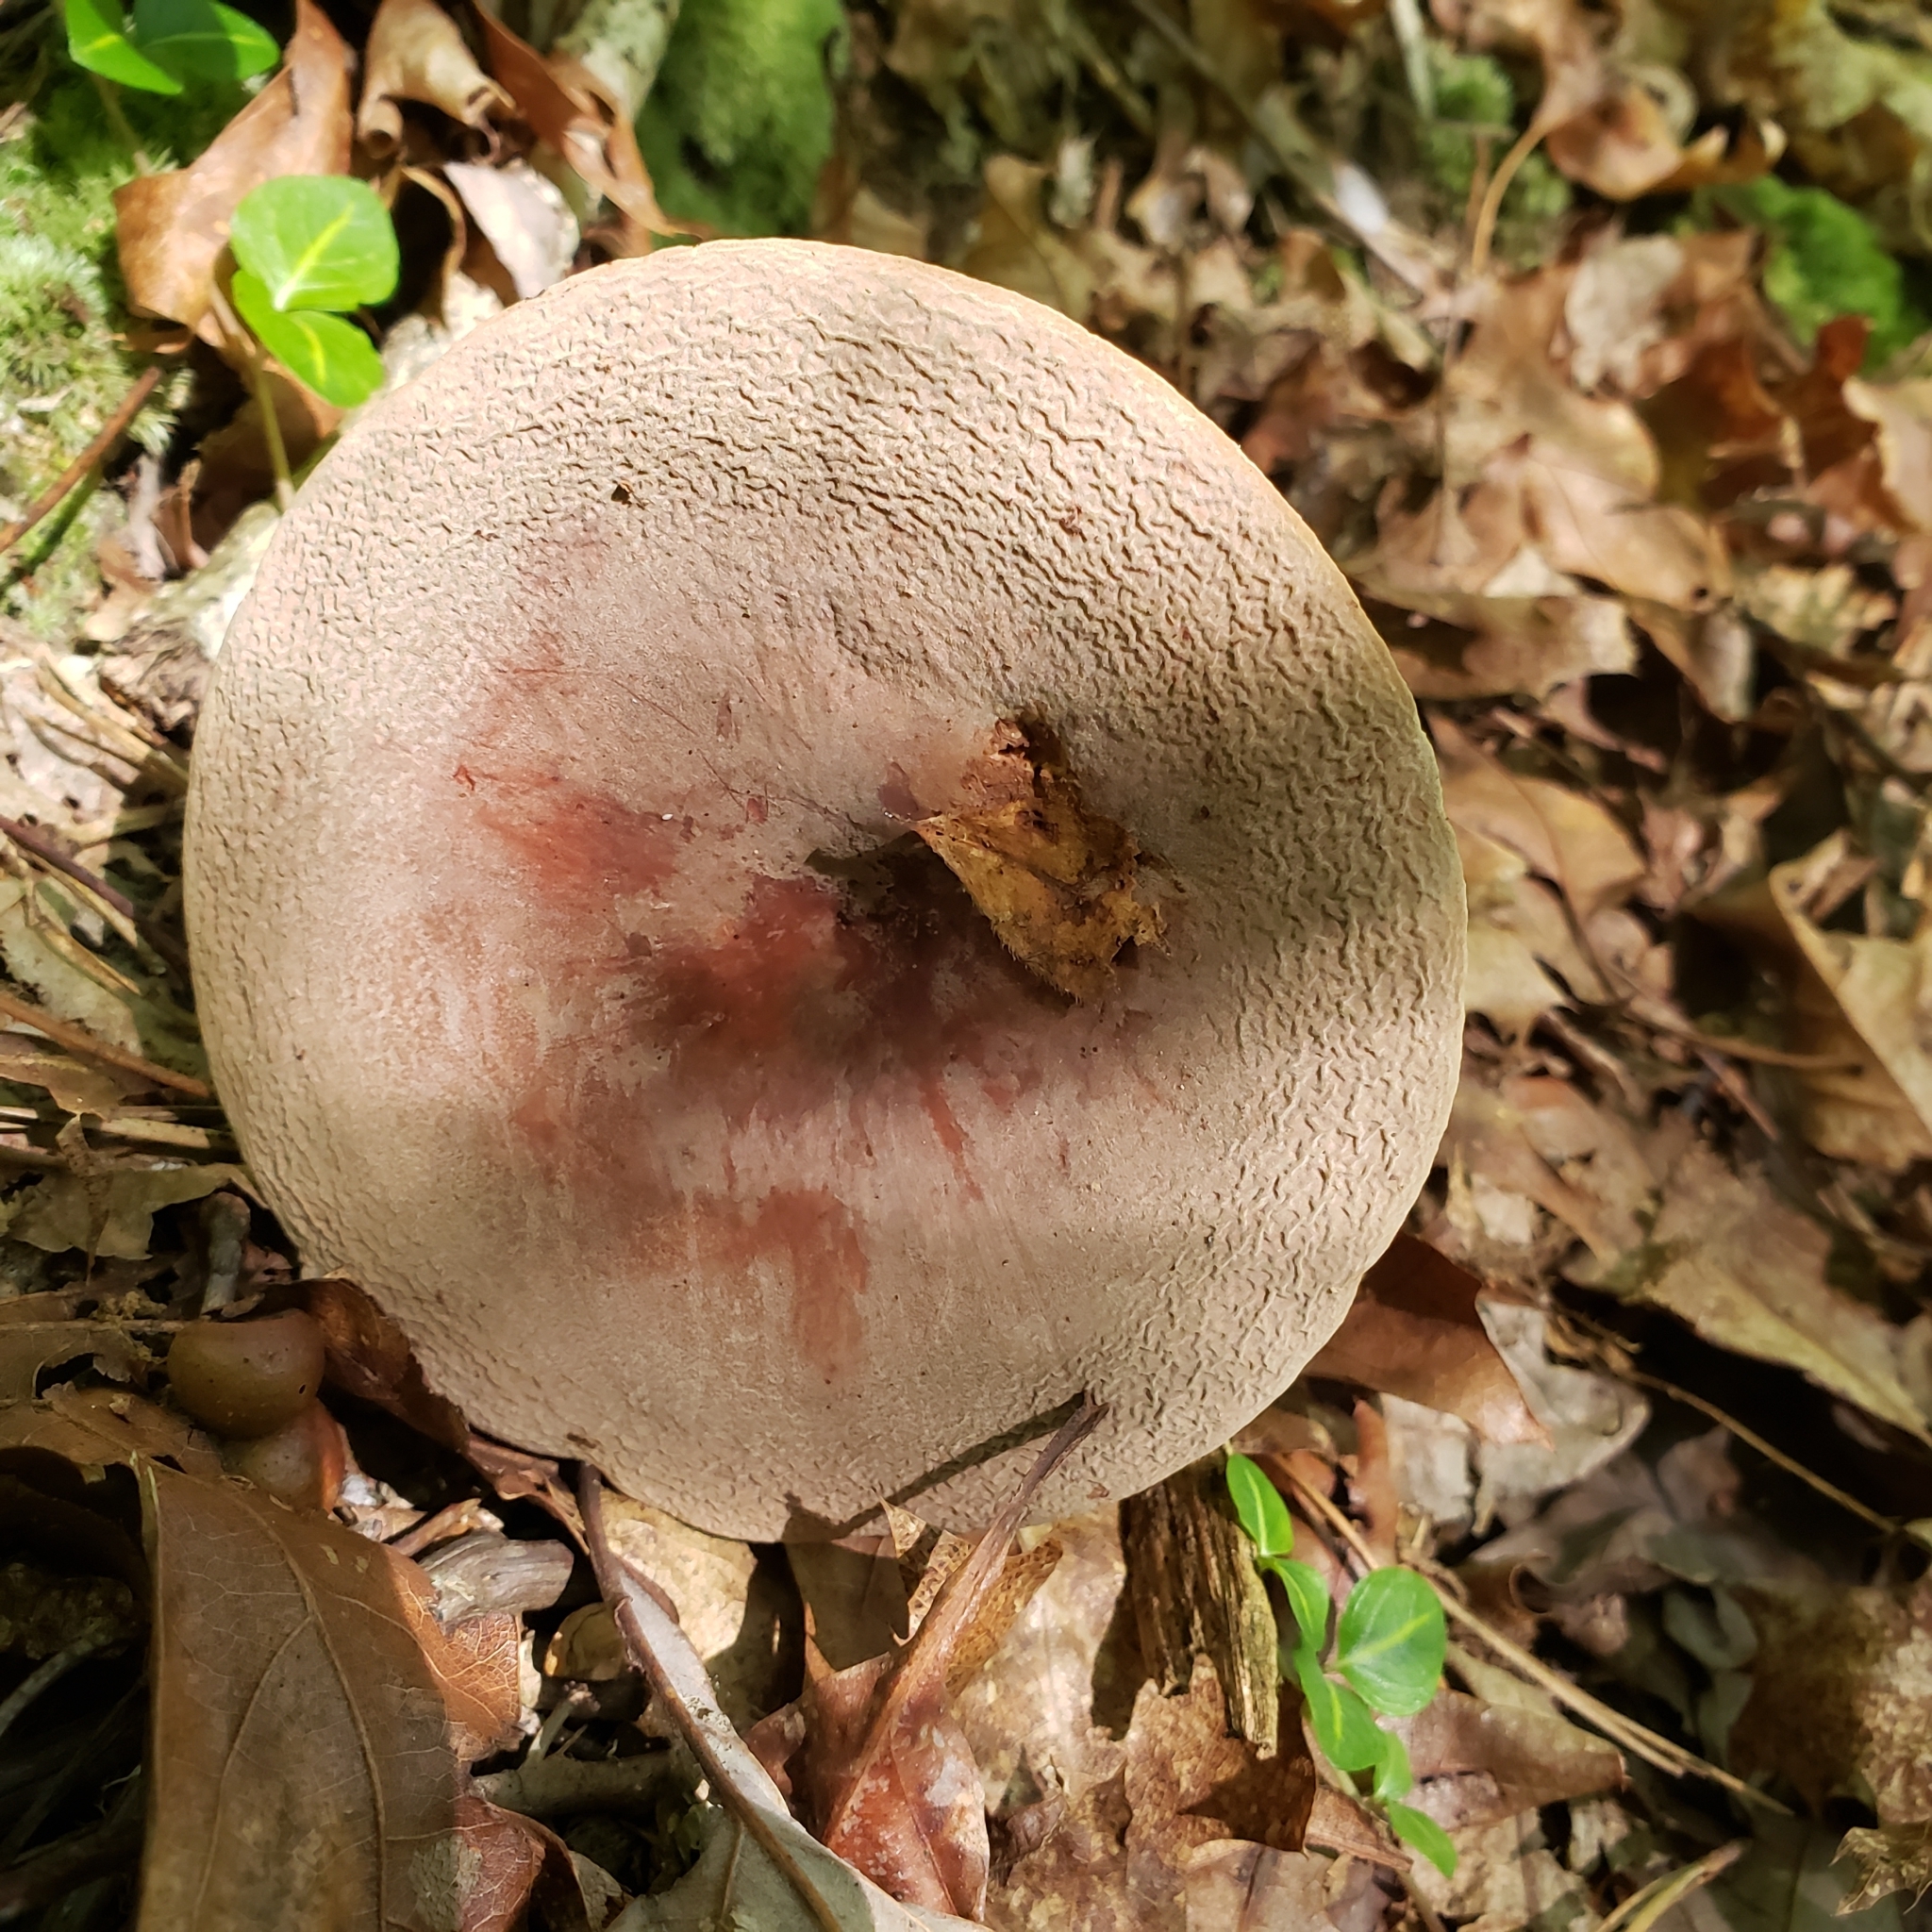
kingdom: Fungi
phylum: Basidiomycota
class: Agaricomycetes
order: Russulales
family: Russulaceae
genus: Lactifluus
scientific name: Lactifluus volemus
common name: Fishy milkcap
